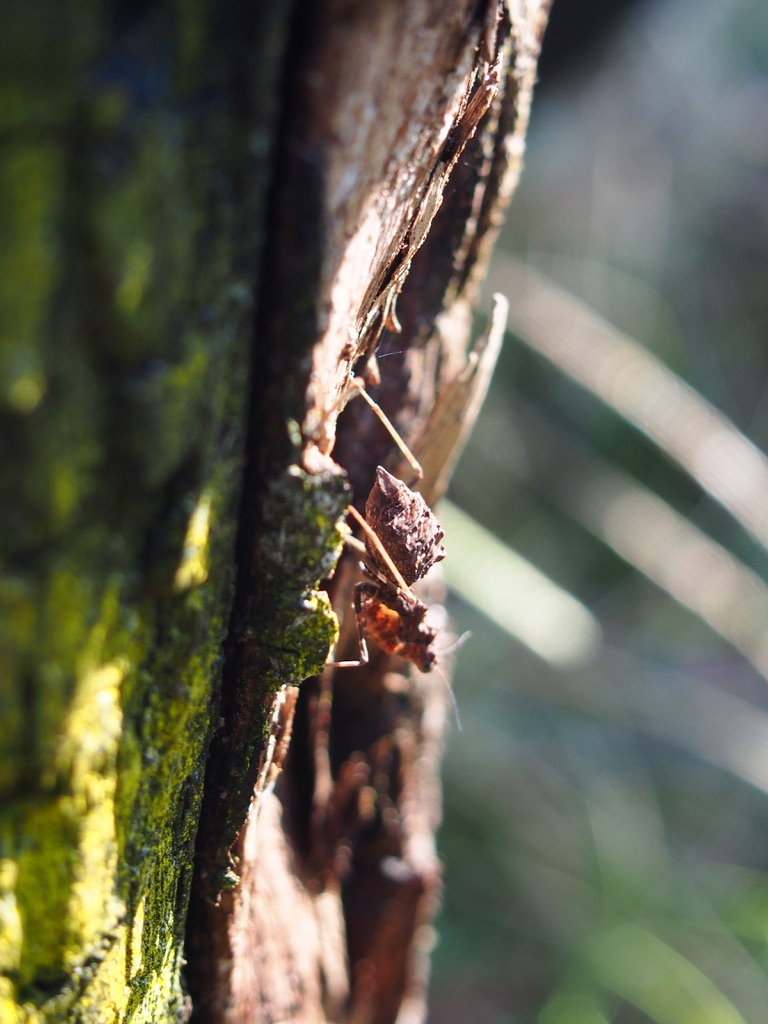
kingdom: Animalia
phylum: Arthropoda
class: Insecta
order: Mantodea
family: Nanomantidae
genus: Paraoxypilus
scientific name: Paraoxypilus tasmaniensis
